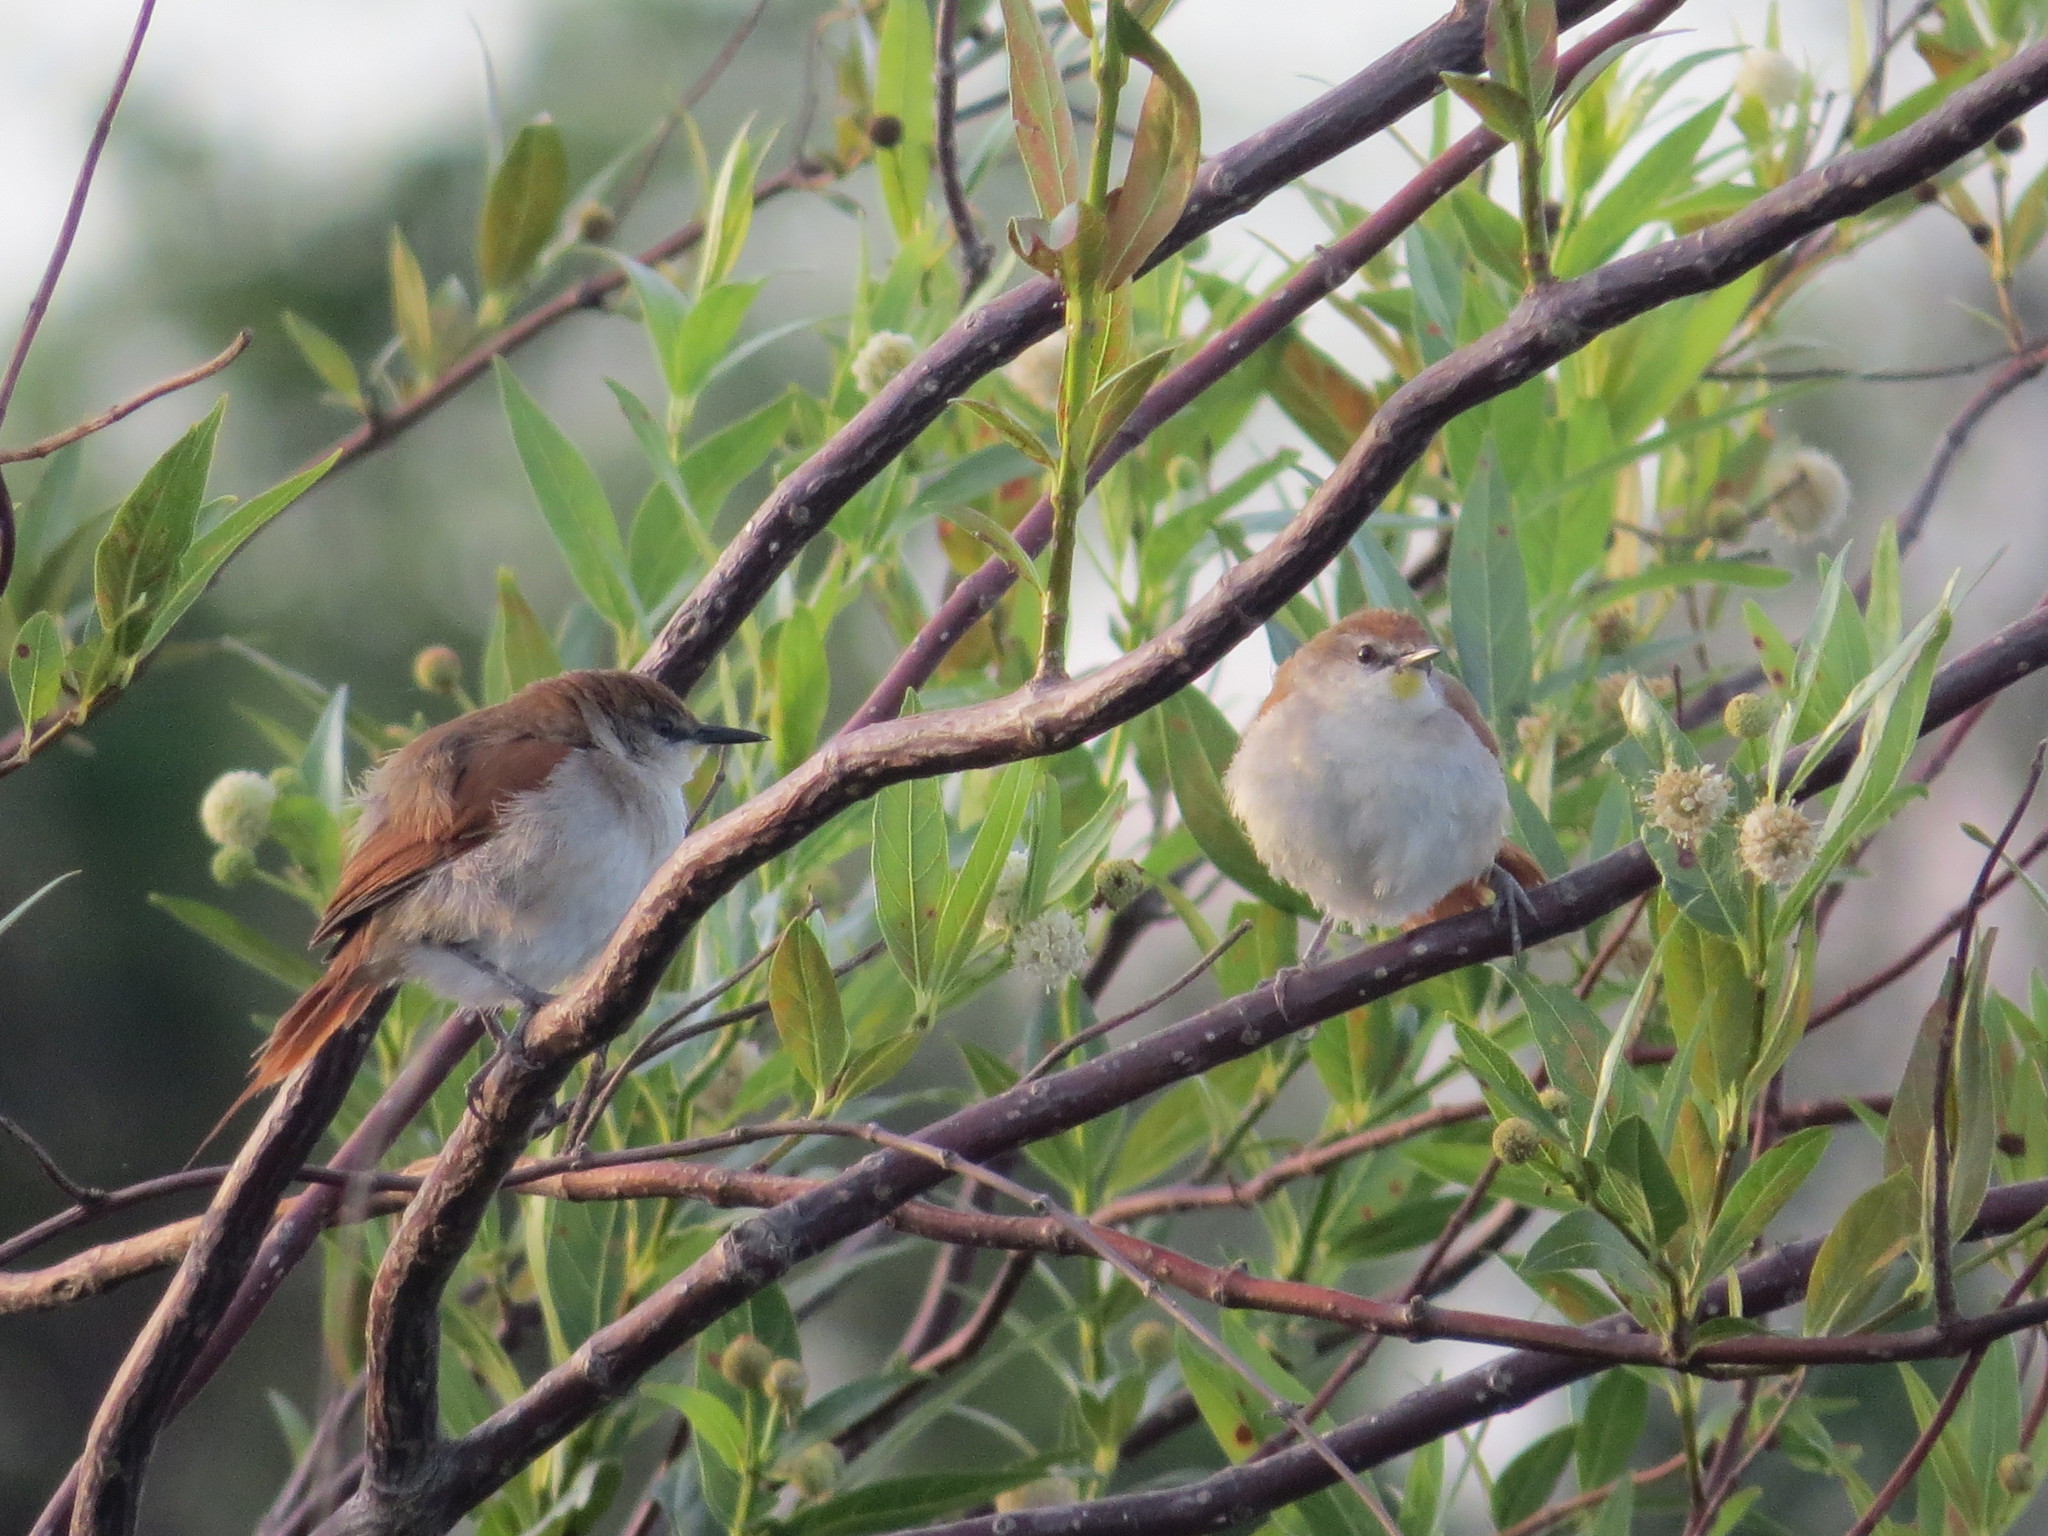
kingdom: Animalia
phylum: Chordata
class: Aves
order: Passeriformes
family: Furnariidae
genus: Certhiaxis
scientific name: Certhiaxis cinnamomeus
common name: Yellow-chinned spinetail
